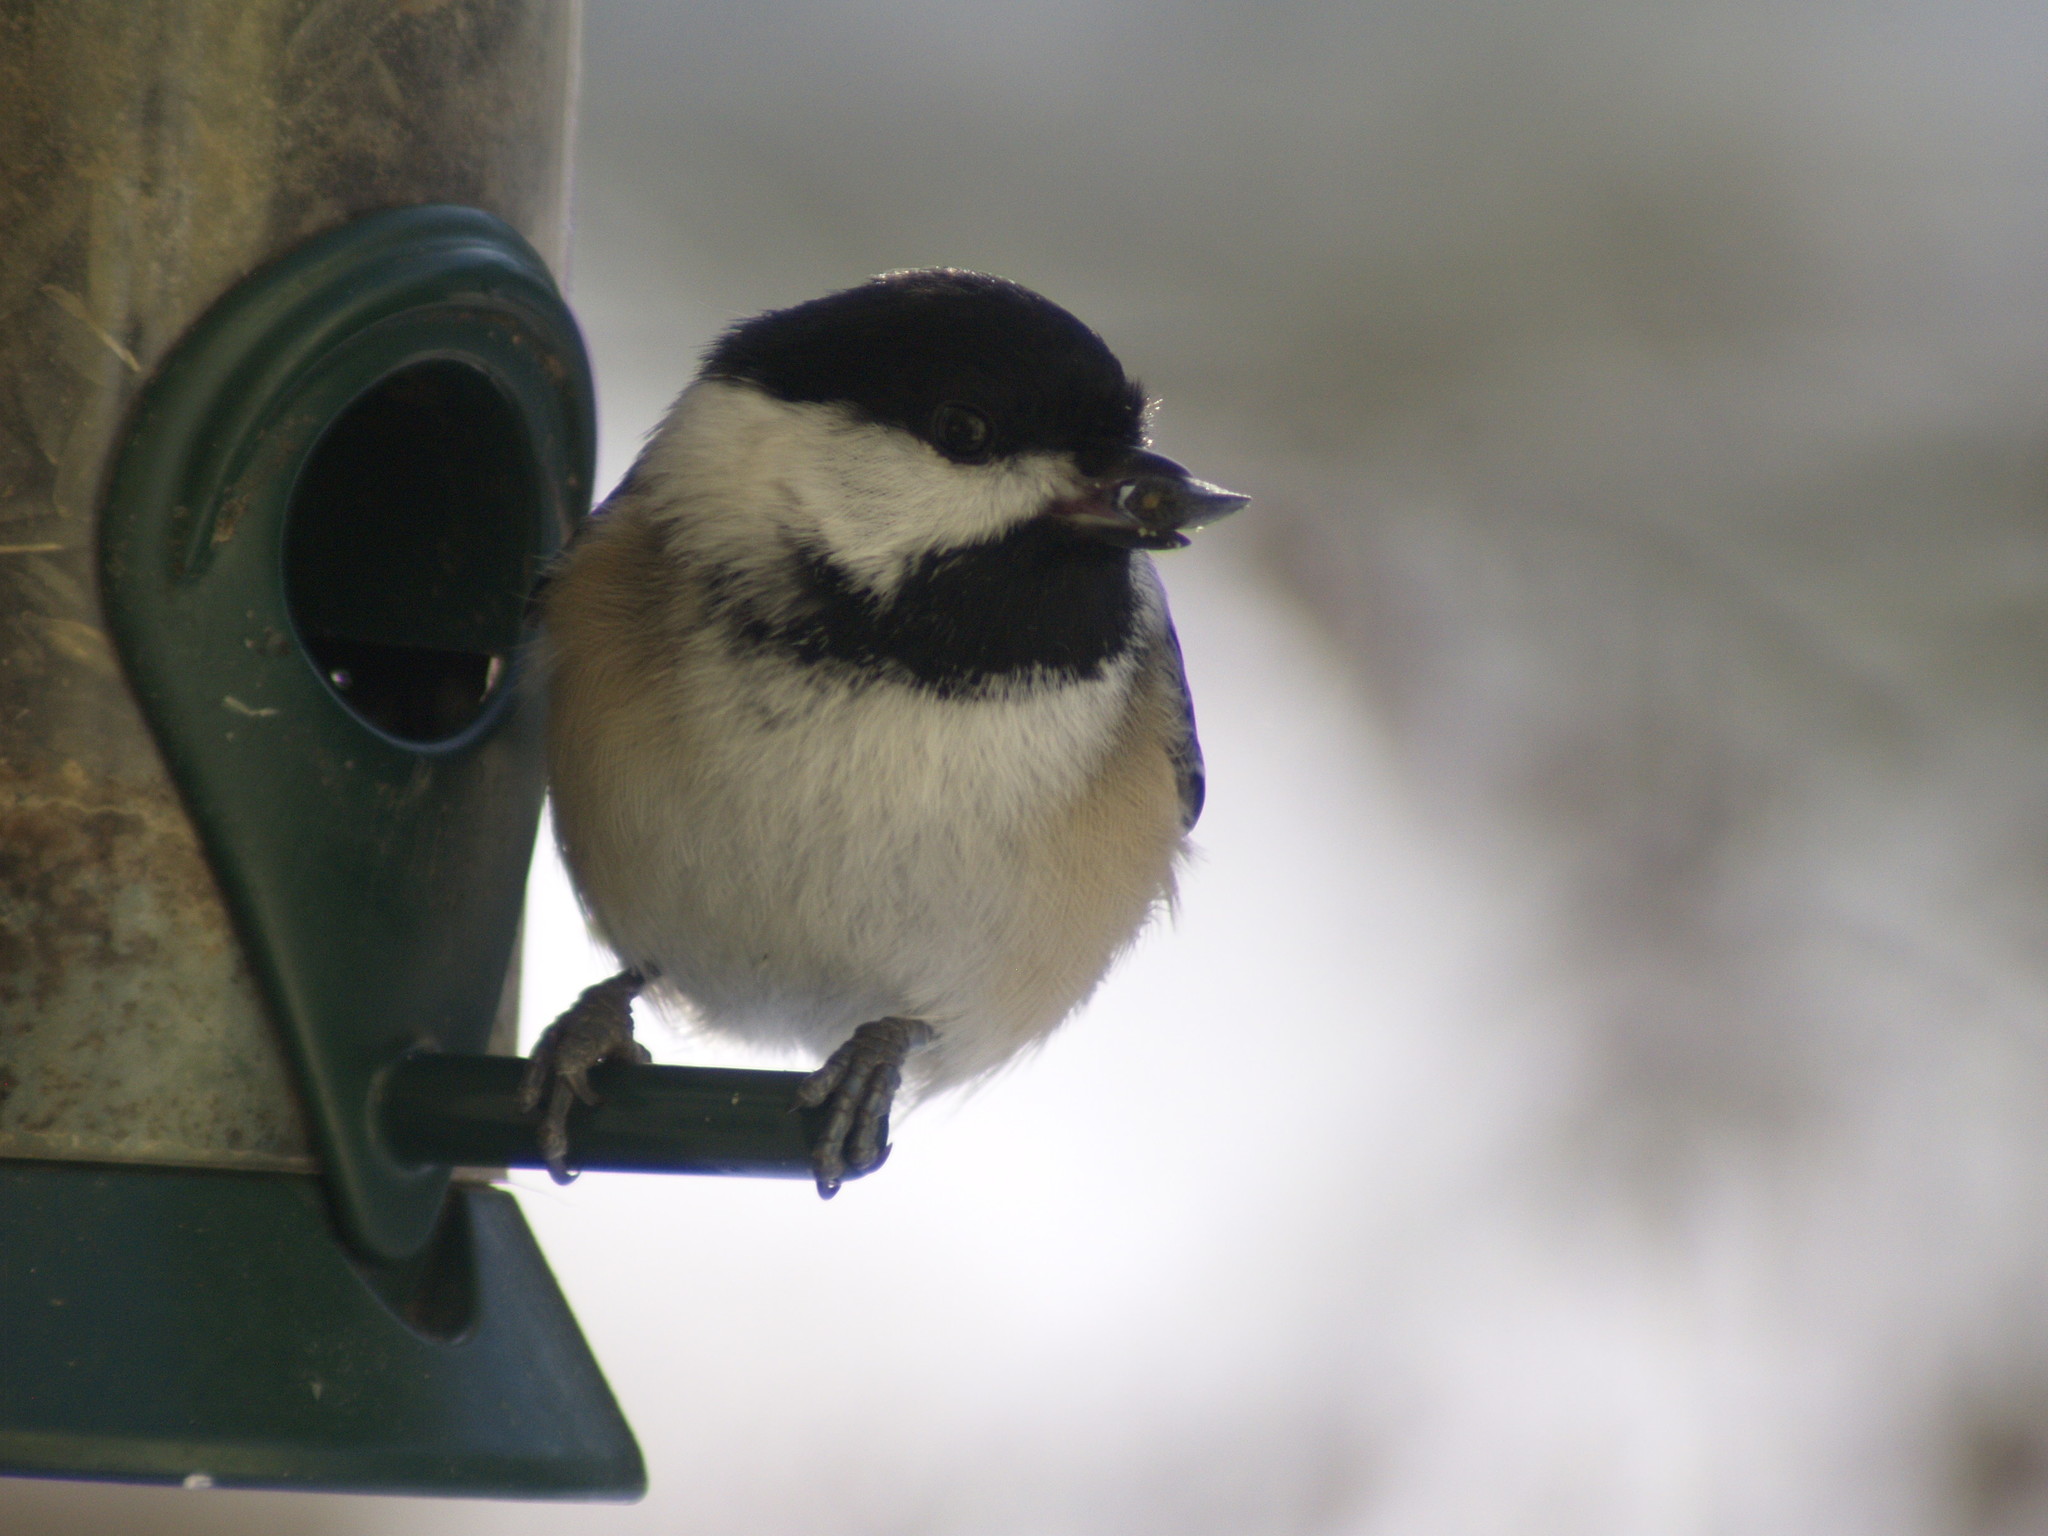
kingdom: Animalia
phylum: Chordata
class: Aves
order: Passeriformes
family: Paridae
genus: Poecile
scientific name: Poecile atricapillus
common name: Black-capped chickadee
